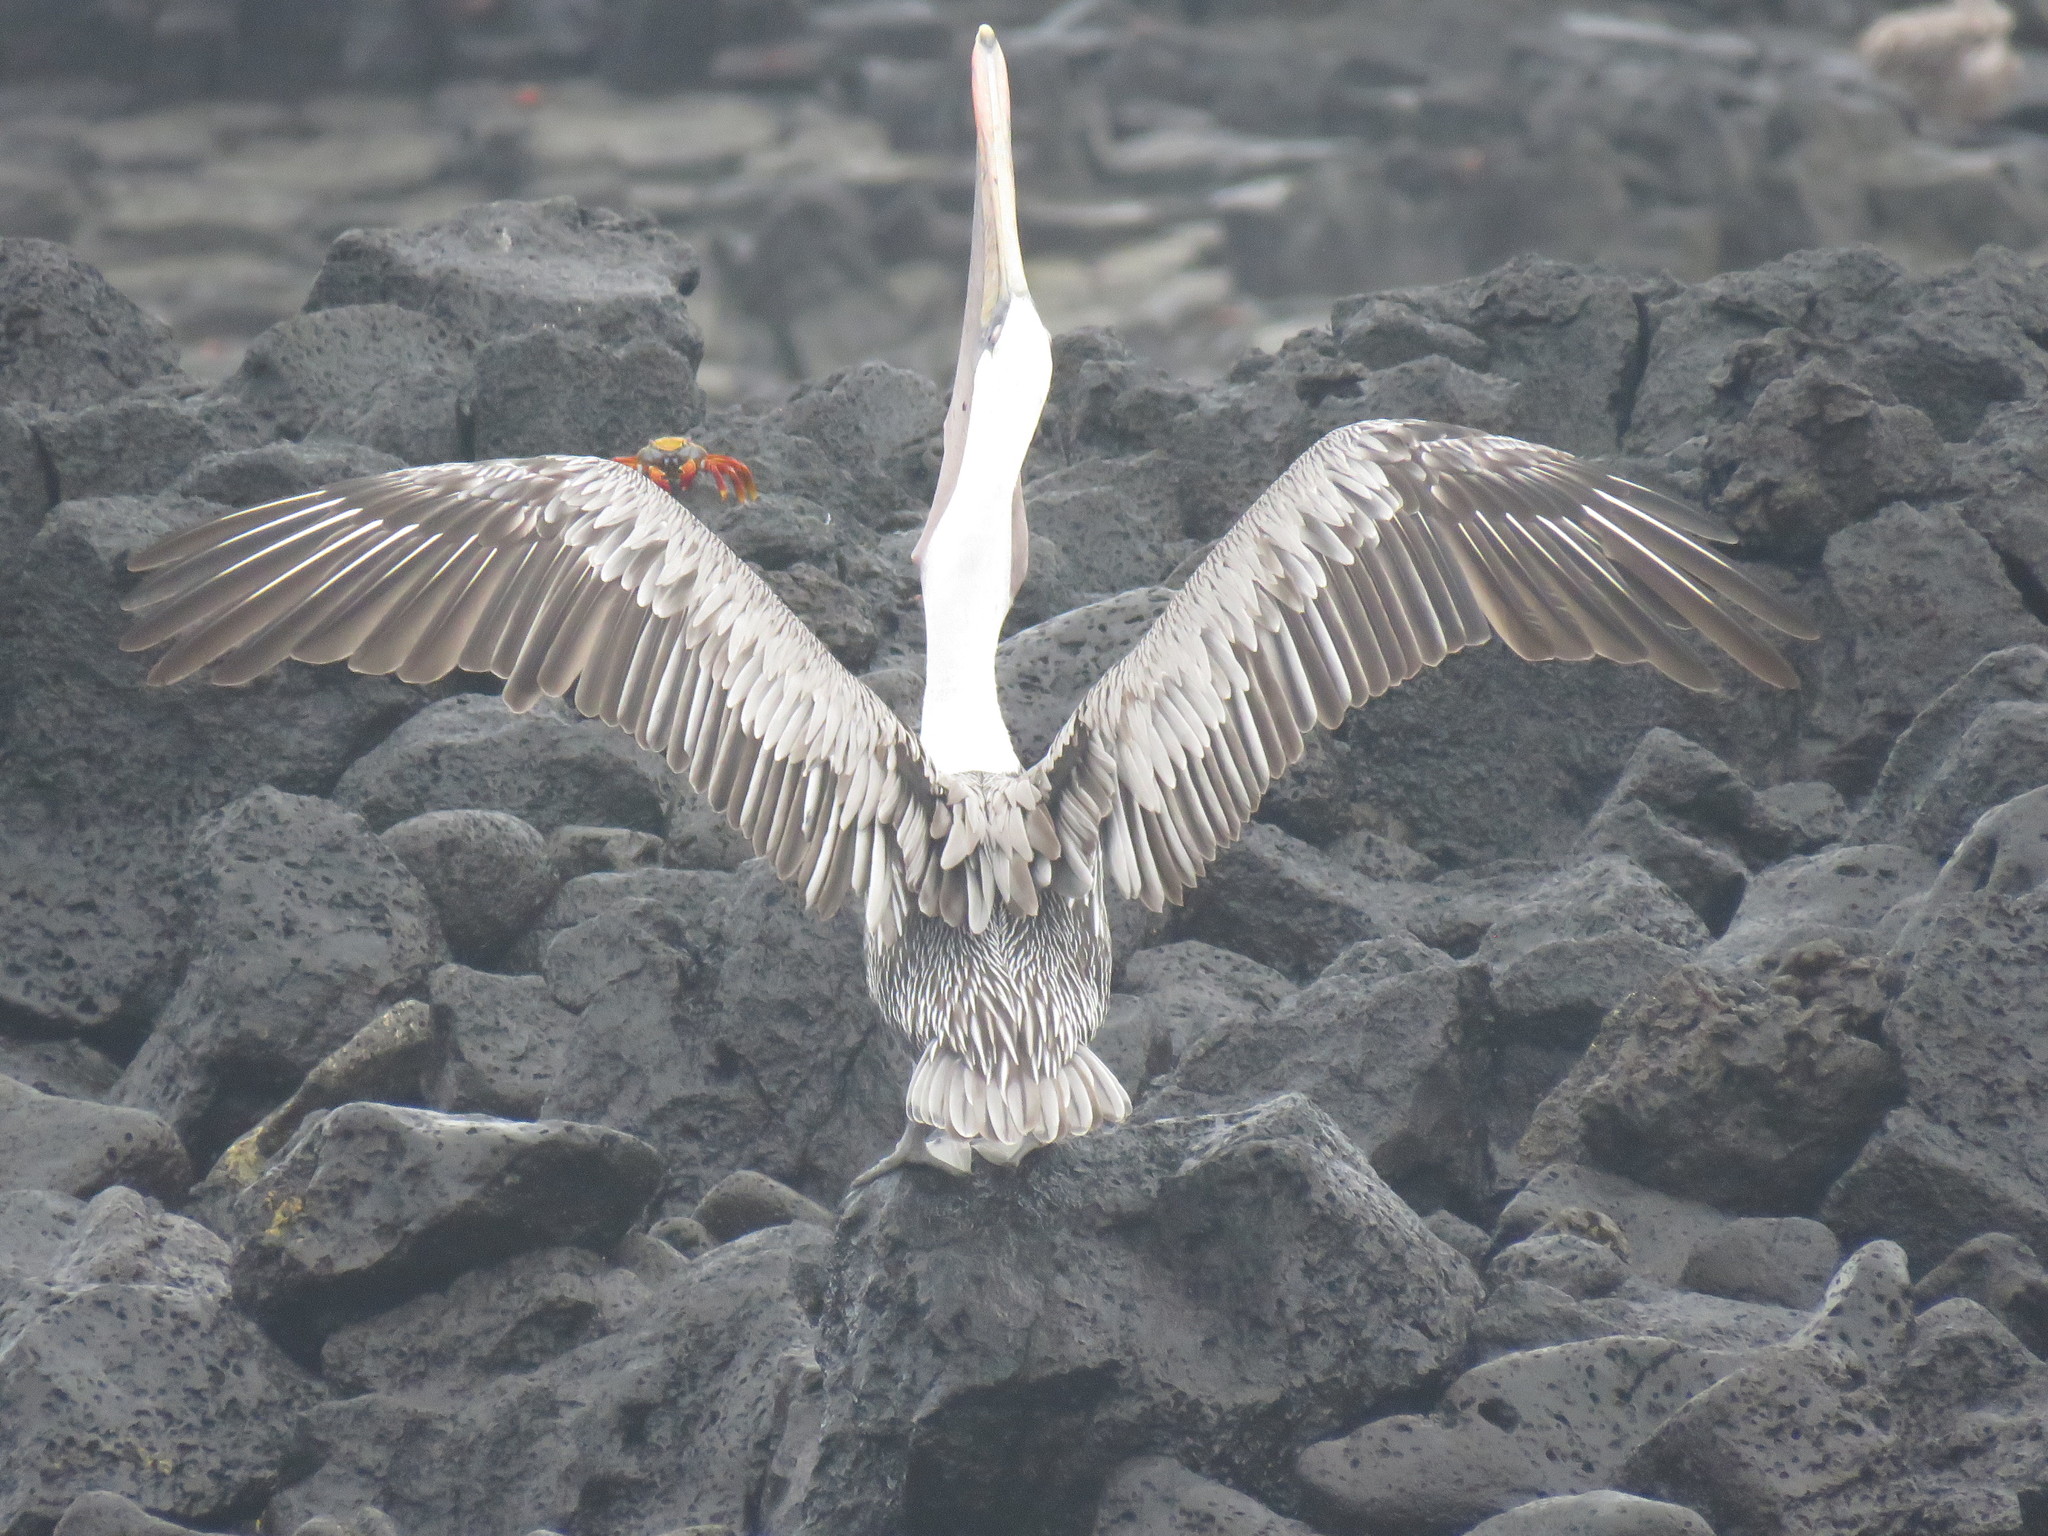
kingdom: Animalia
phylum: Chordata
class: Aves
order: Pelecaniformes
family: Pelecanidae
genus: Pelecanus
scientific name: Pelecanus occidentalis
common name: Brown pelican
